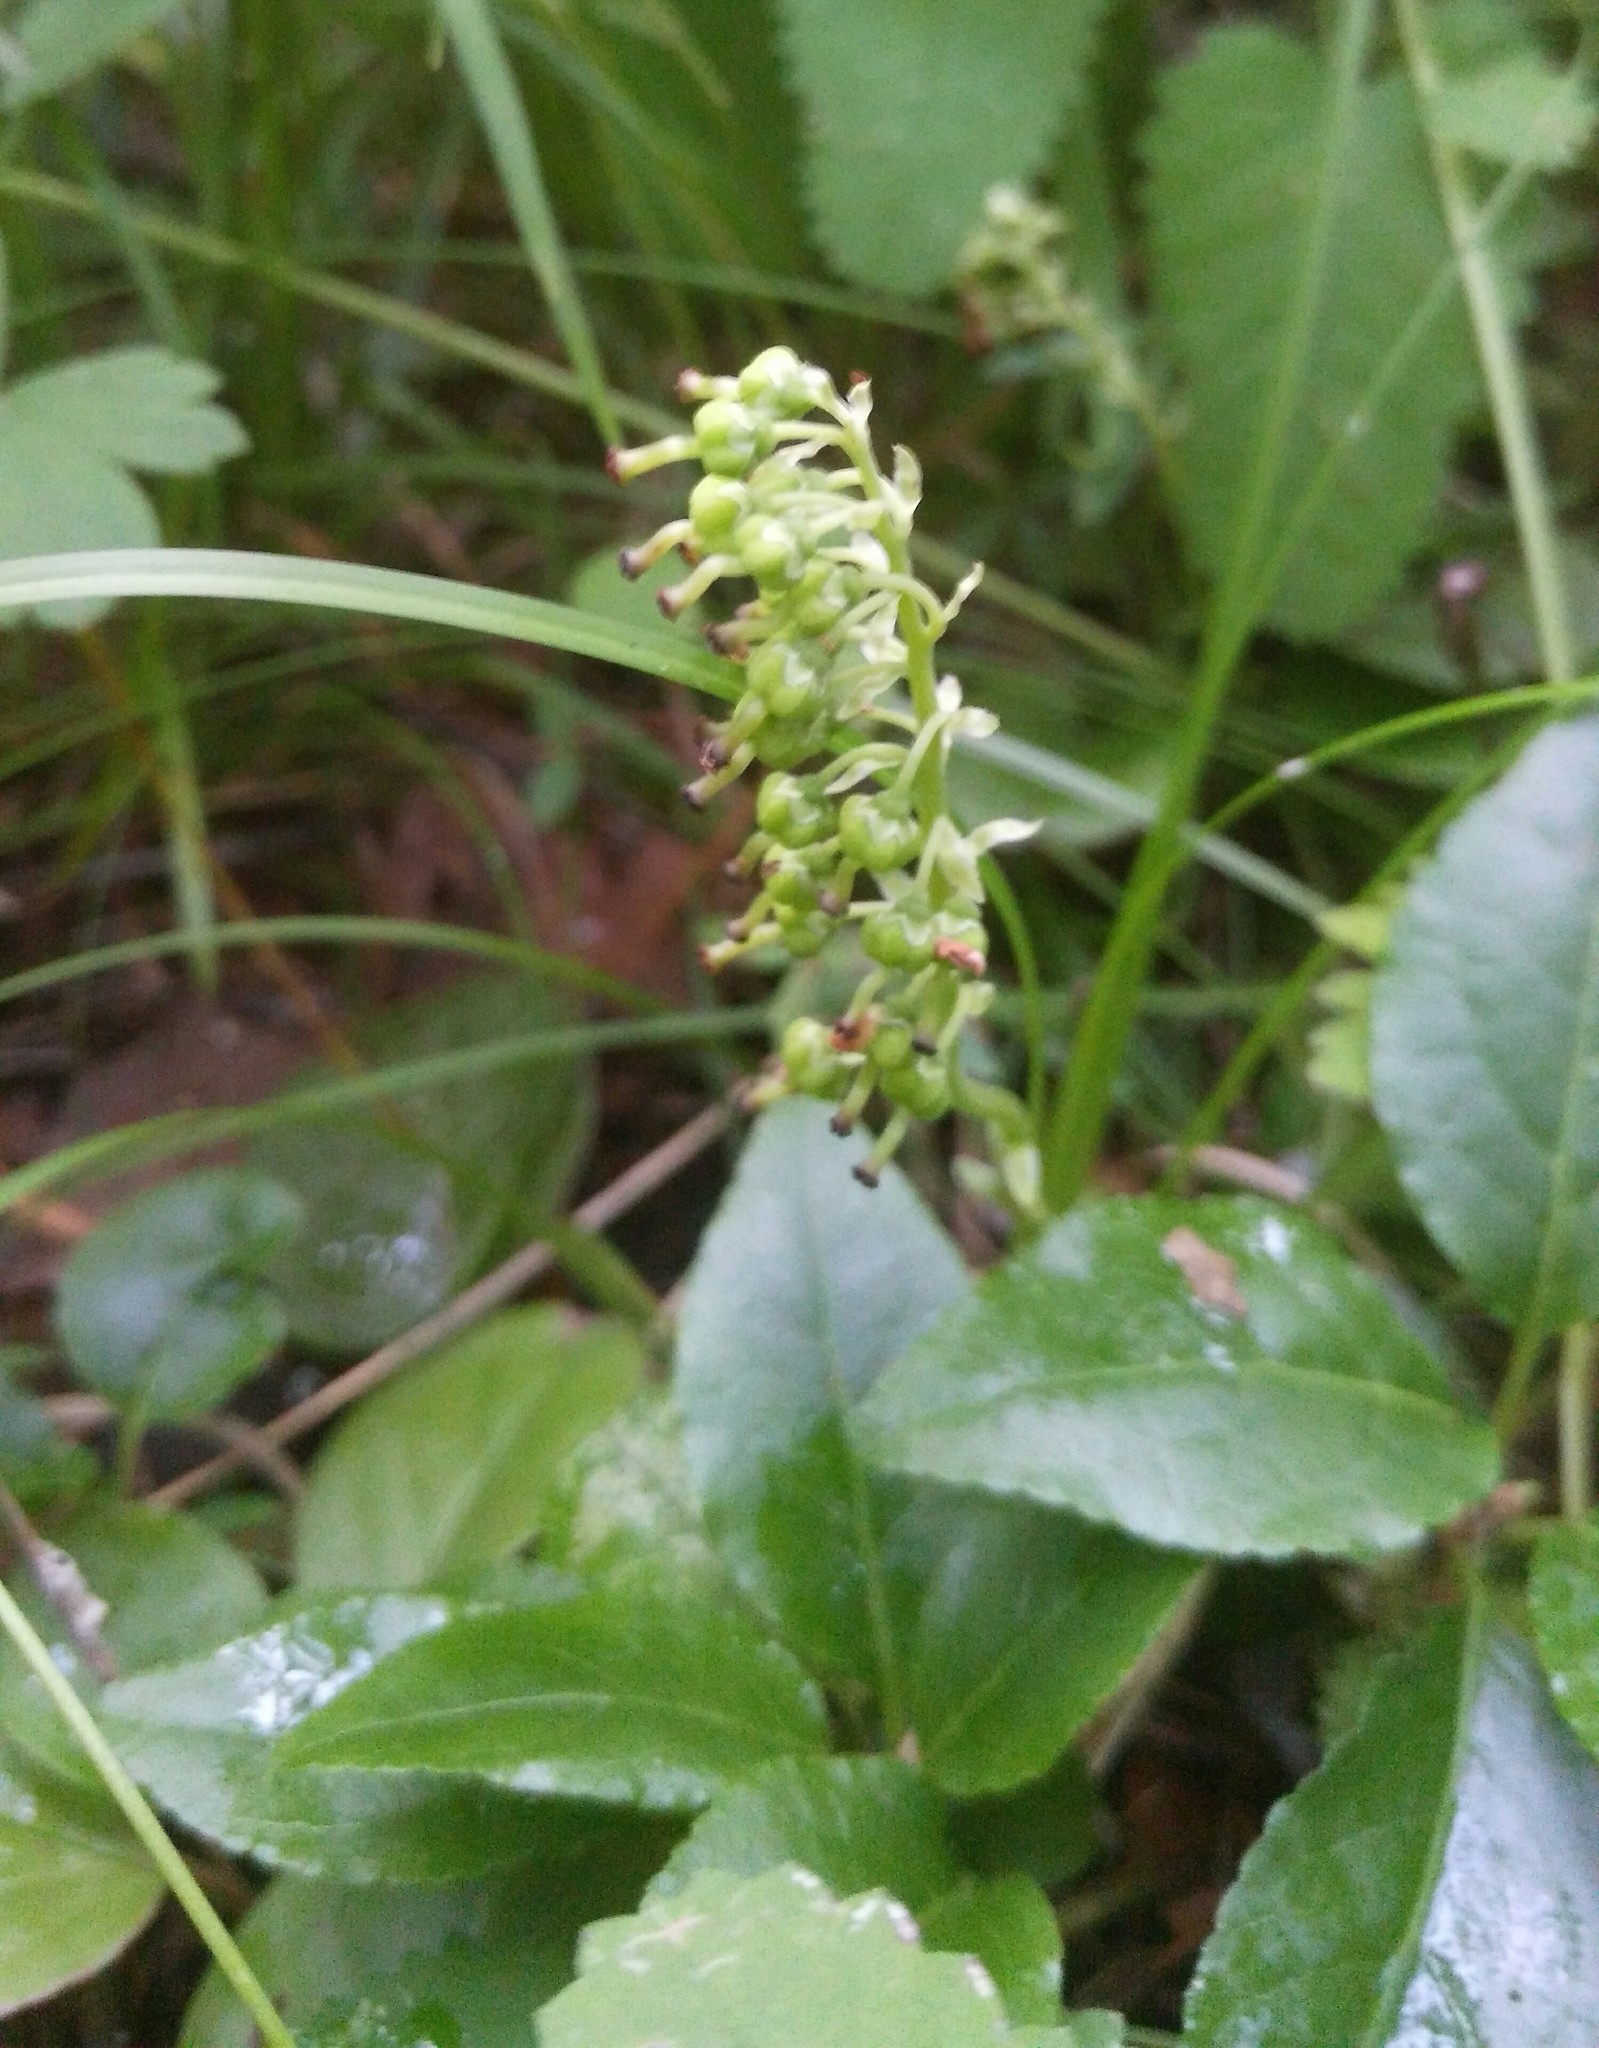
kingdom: Plantae
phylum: Tracheophyta
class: Magnoliopsida
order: Ericales
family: Ericaceae
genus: Orthilia
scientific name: Orthilia secunda
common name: One-sided orthilia
